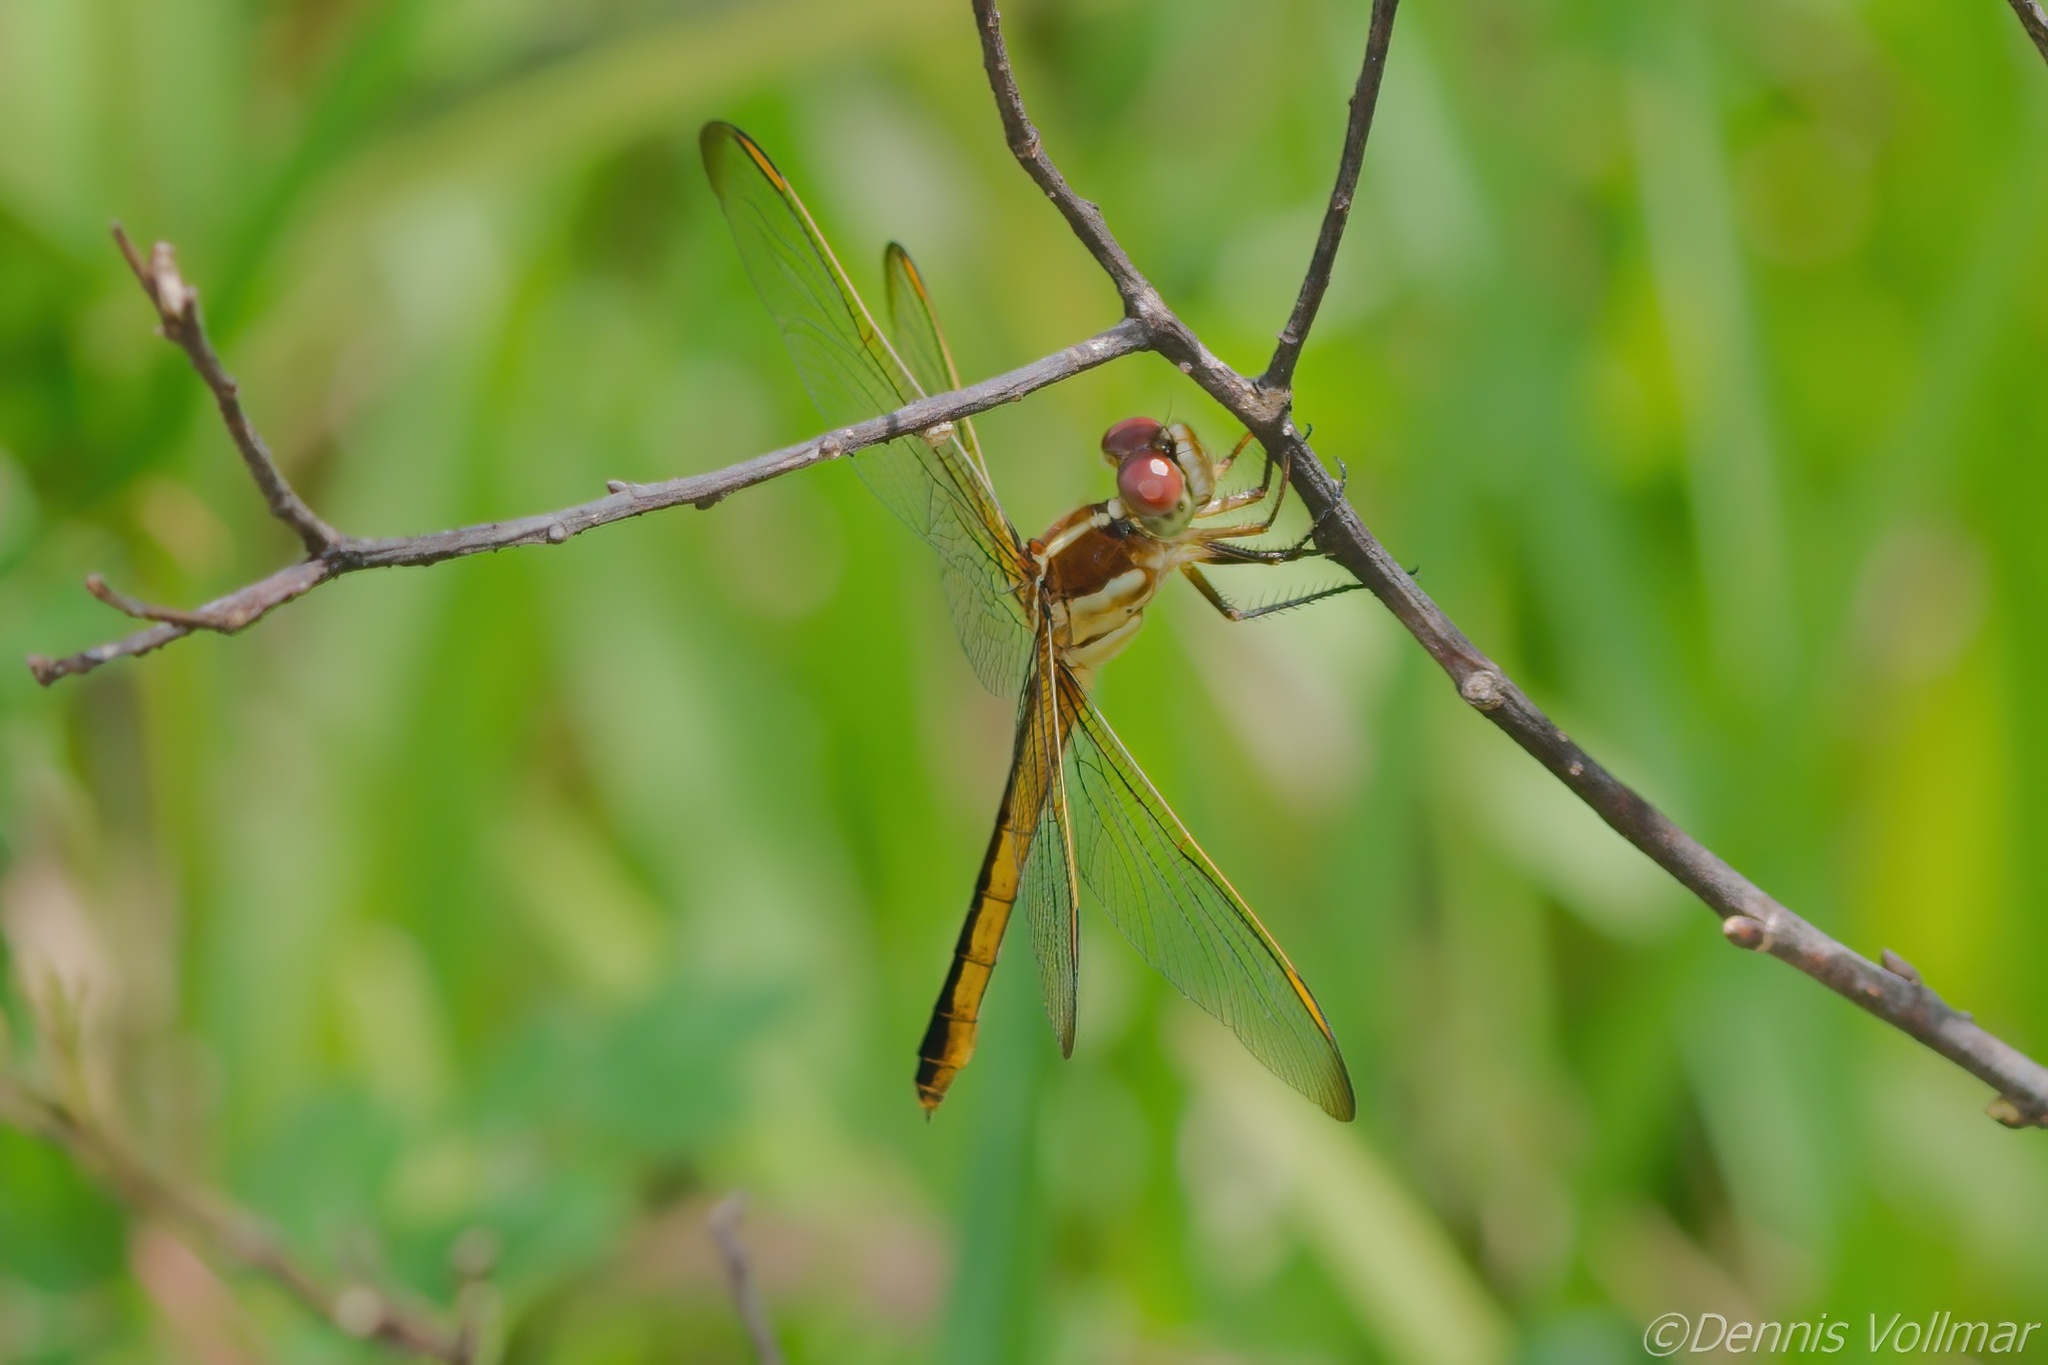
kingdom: Animalia
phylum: Arthropoda
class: Insecta
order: Odonata
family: Libellulidae
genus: Libellula
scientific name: Libellula auripennis
